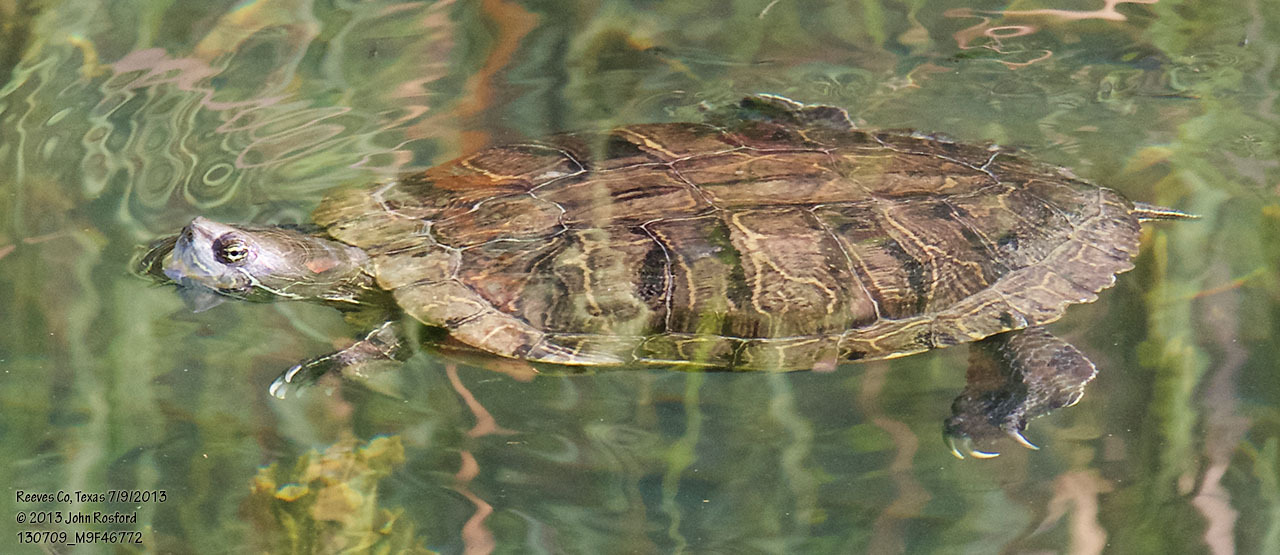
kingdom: Animalia
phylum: Chordata
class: Testudines
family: Emydidae
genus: Trachemys
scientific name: Trachemys scripta
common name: Slider
